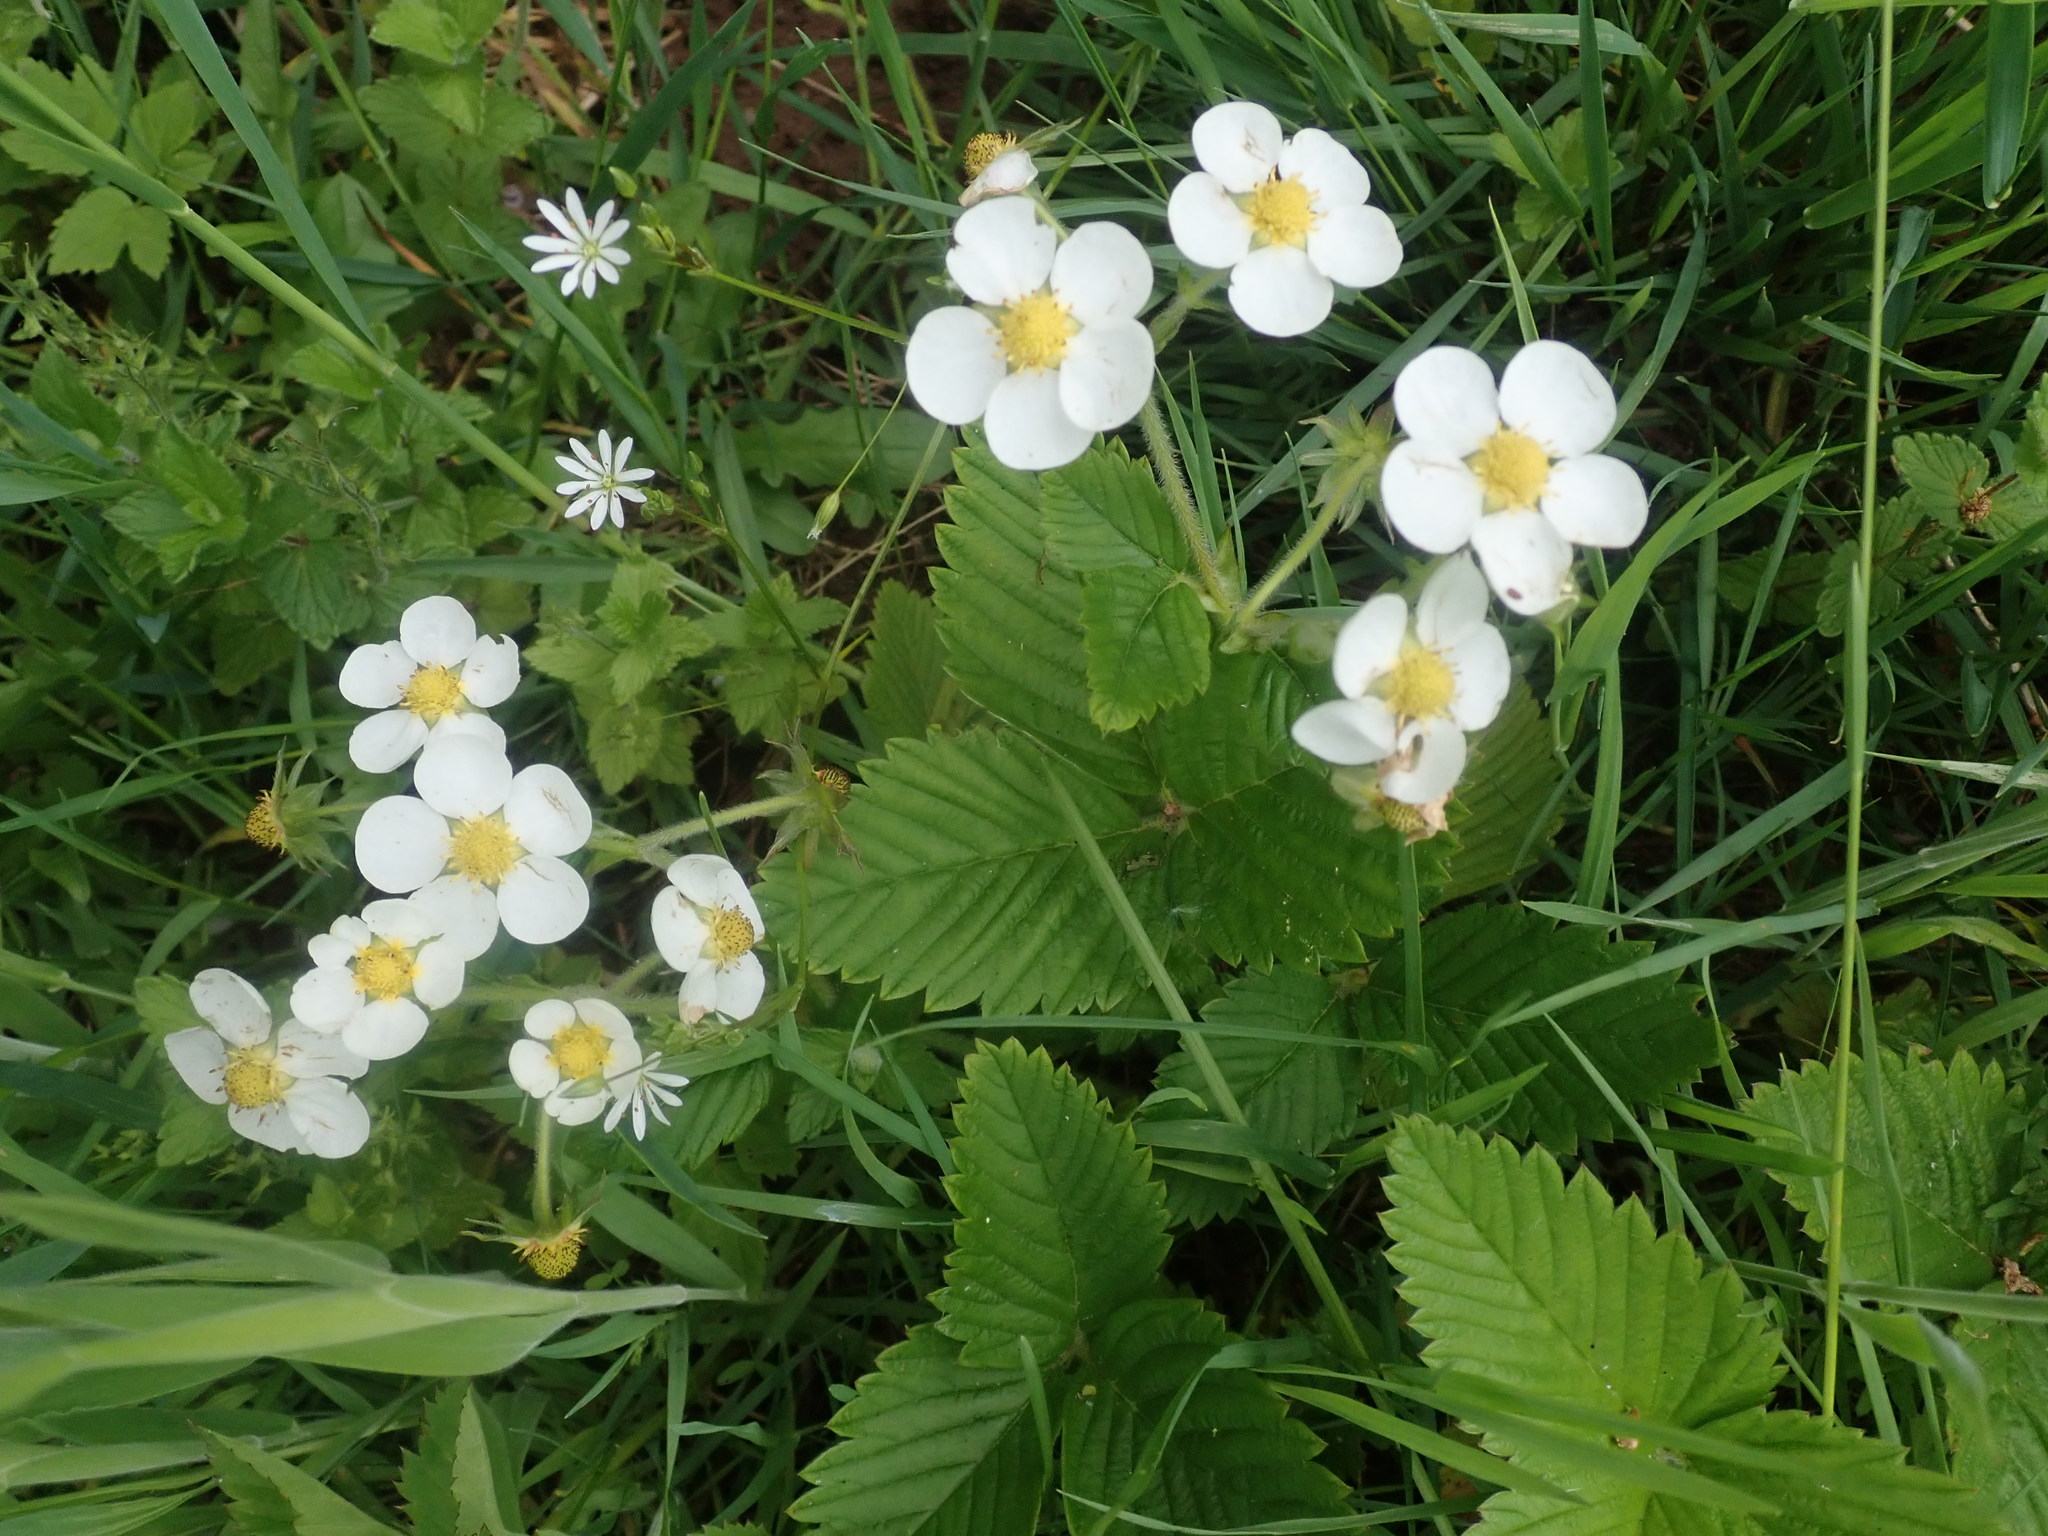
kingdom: Plantae
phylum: Tracheophyta
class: Magnoliopsida
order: Rosales
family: Rosaceae
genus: Fragaria
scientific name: Fragaria viridis
